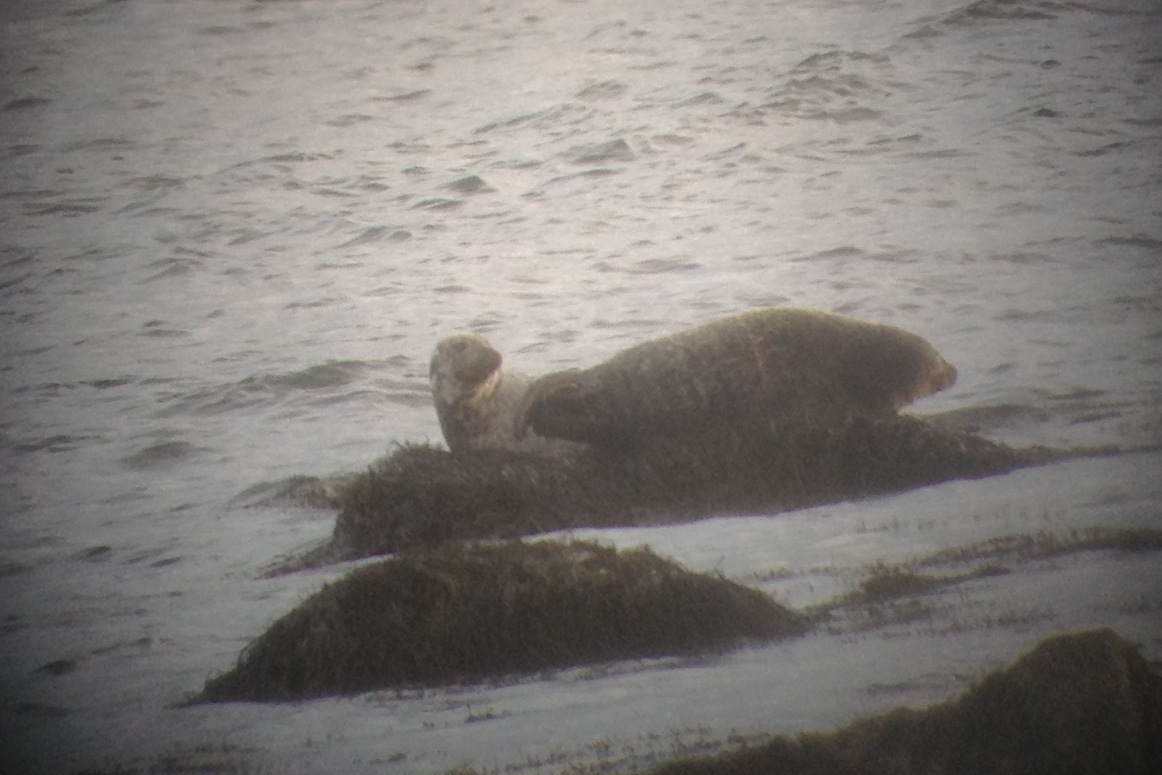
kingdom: Animalia
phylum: Chordata
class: Mammalia
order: Carnivora
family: Phocidae
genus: Halichoerus
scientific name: Halichoerus grypus
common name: Grey seal
